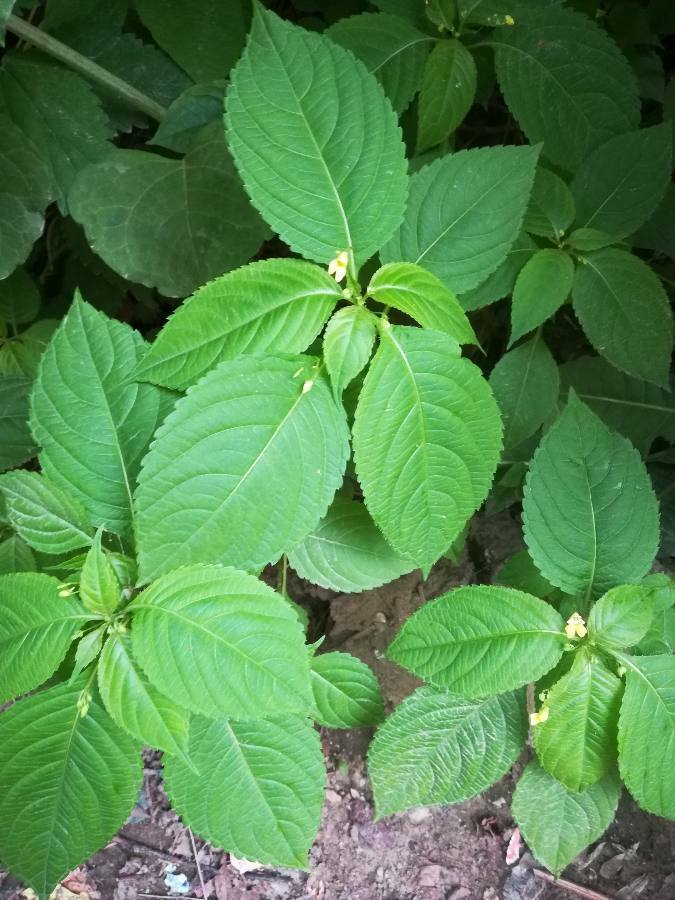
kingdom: Plantae
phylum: Tracheophyta
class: Magnoliopsida
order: Ericales
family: Balsaminaceae
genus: Impatiens
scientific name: Impatiens parviflora
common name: Small balsam
